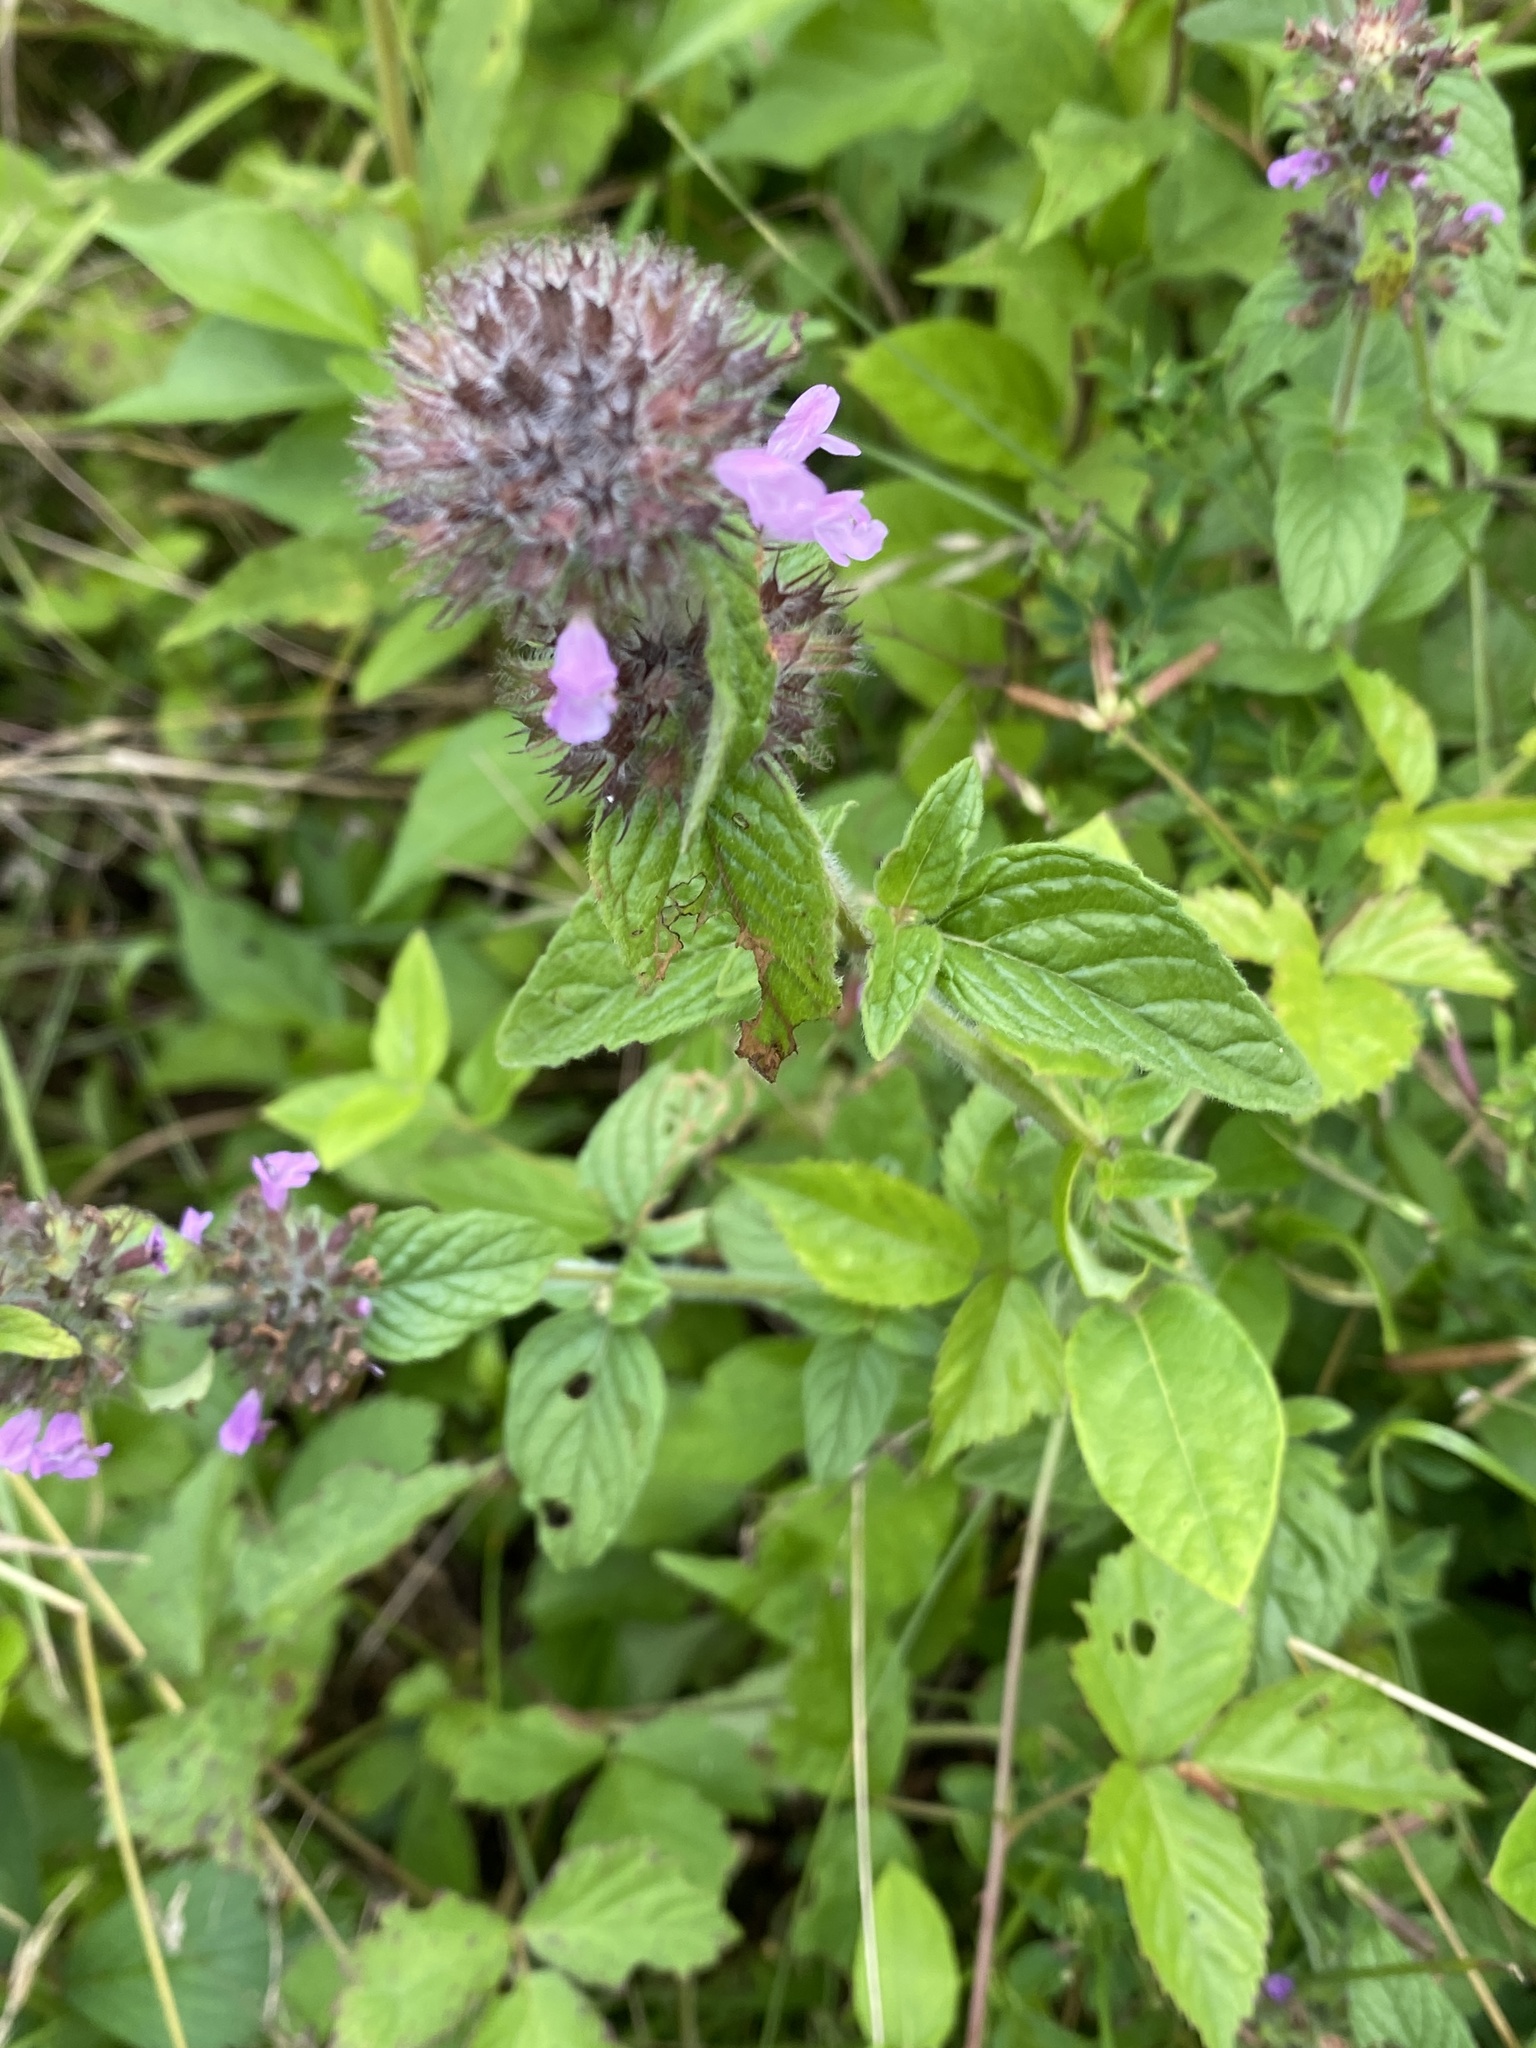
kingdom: Plantae
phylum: Tracheophyta
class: Magnoliopsida
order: Lamiales
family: Lamiaceae
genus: Clinopodium
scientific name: Clinopodium vulgare
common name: Wild basil
